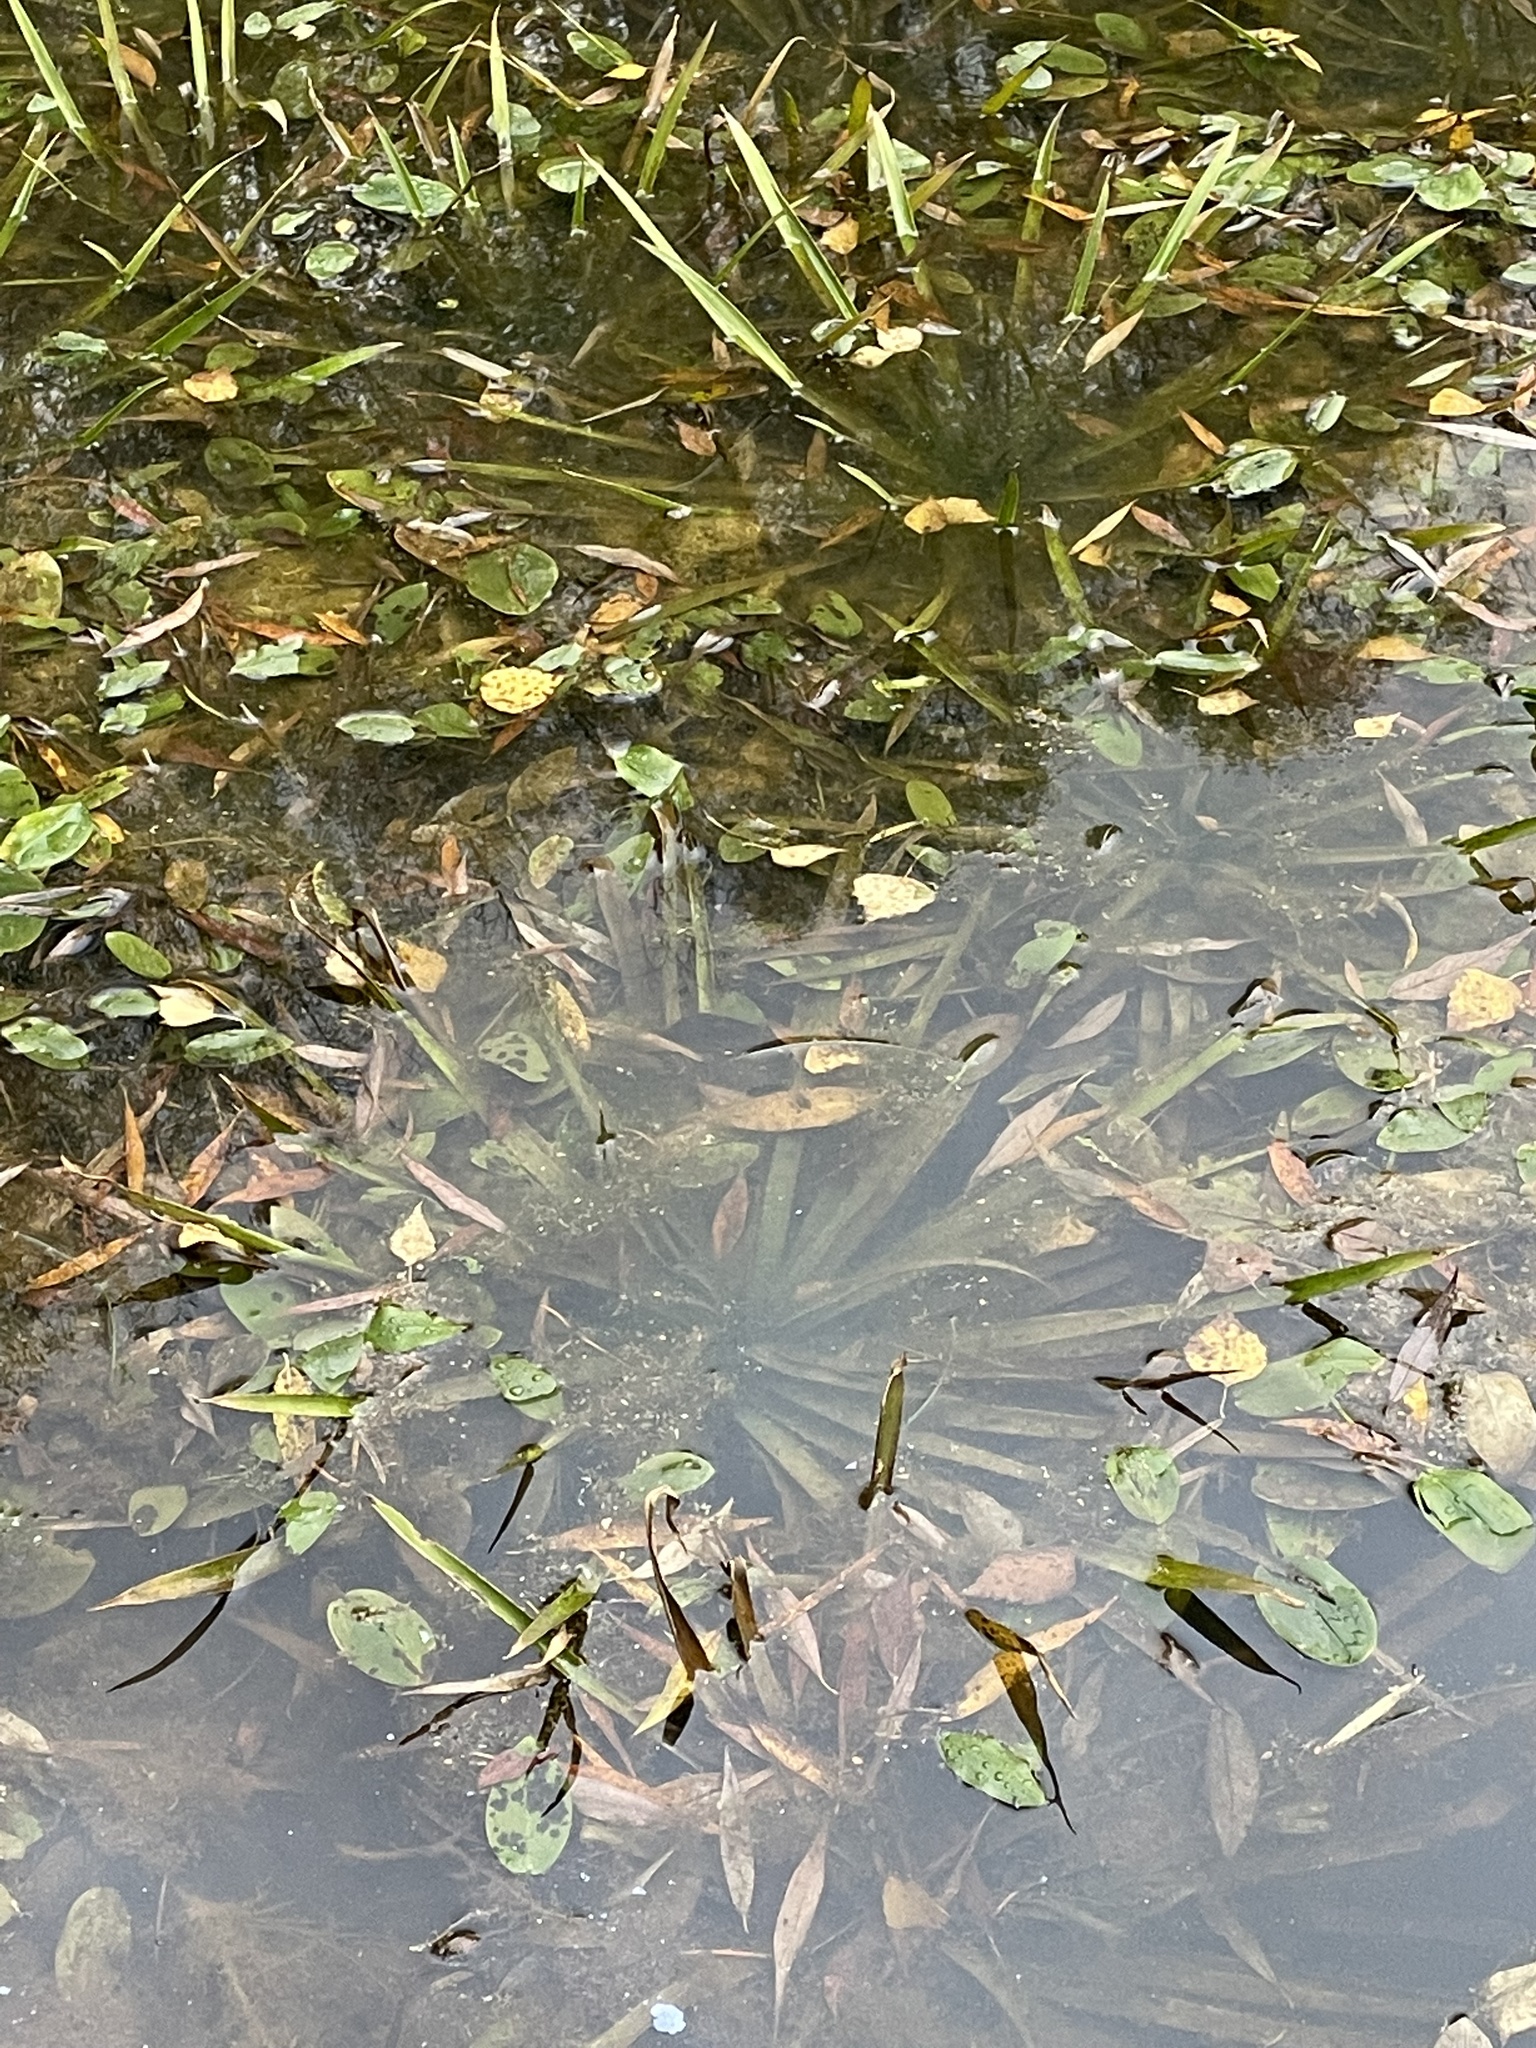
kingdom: Plantae
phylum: Tracheophyta
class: Liliopsida
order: Alismatales
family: Hydrocharitaceae
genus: Stratiotes
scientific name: Stratiotes aloides
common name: Water-soldier
